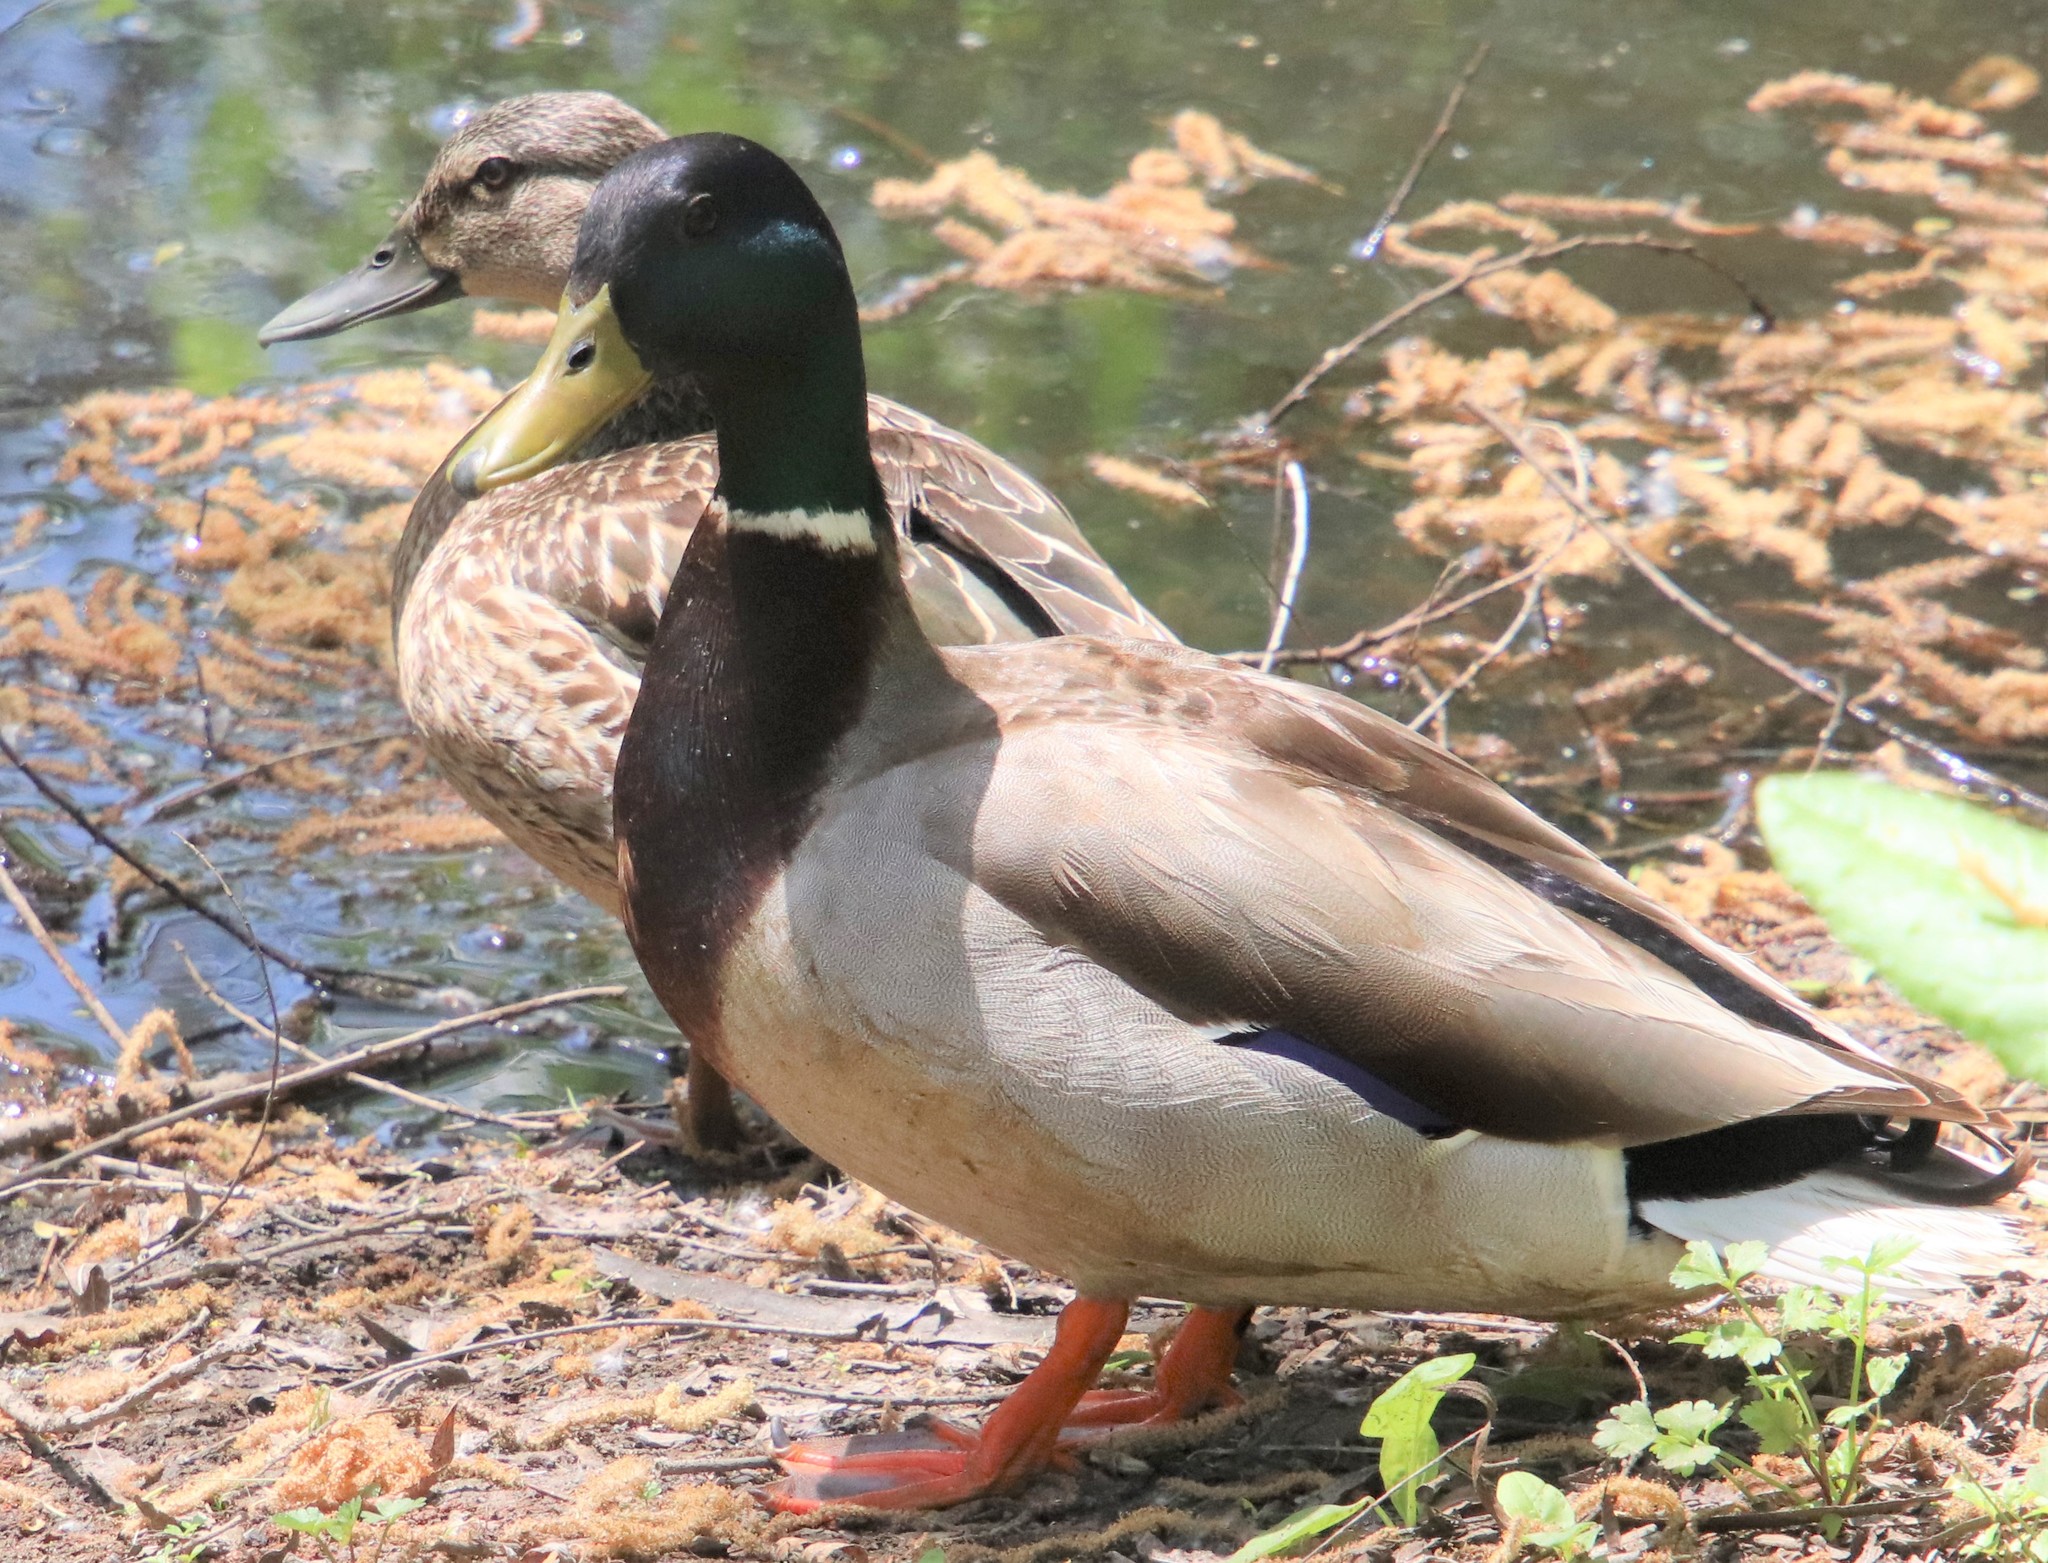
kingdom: Animalia
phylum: Chordata
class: Aves
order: Anseriformes
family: Anatidae
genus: Anas
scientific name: Anas platyrhynchos
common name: Mallard
